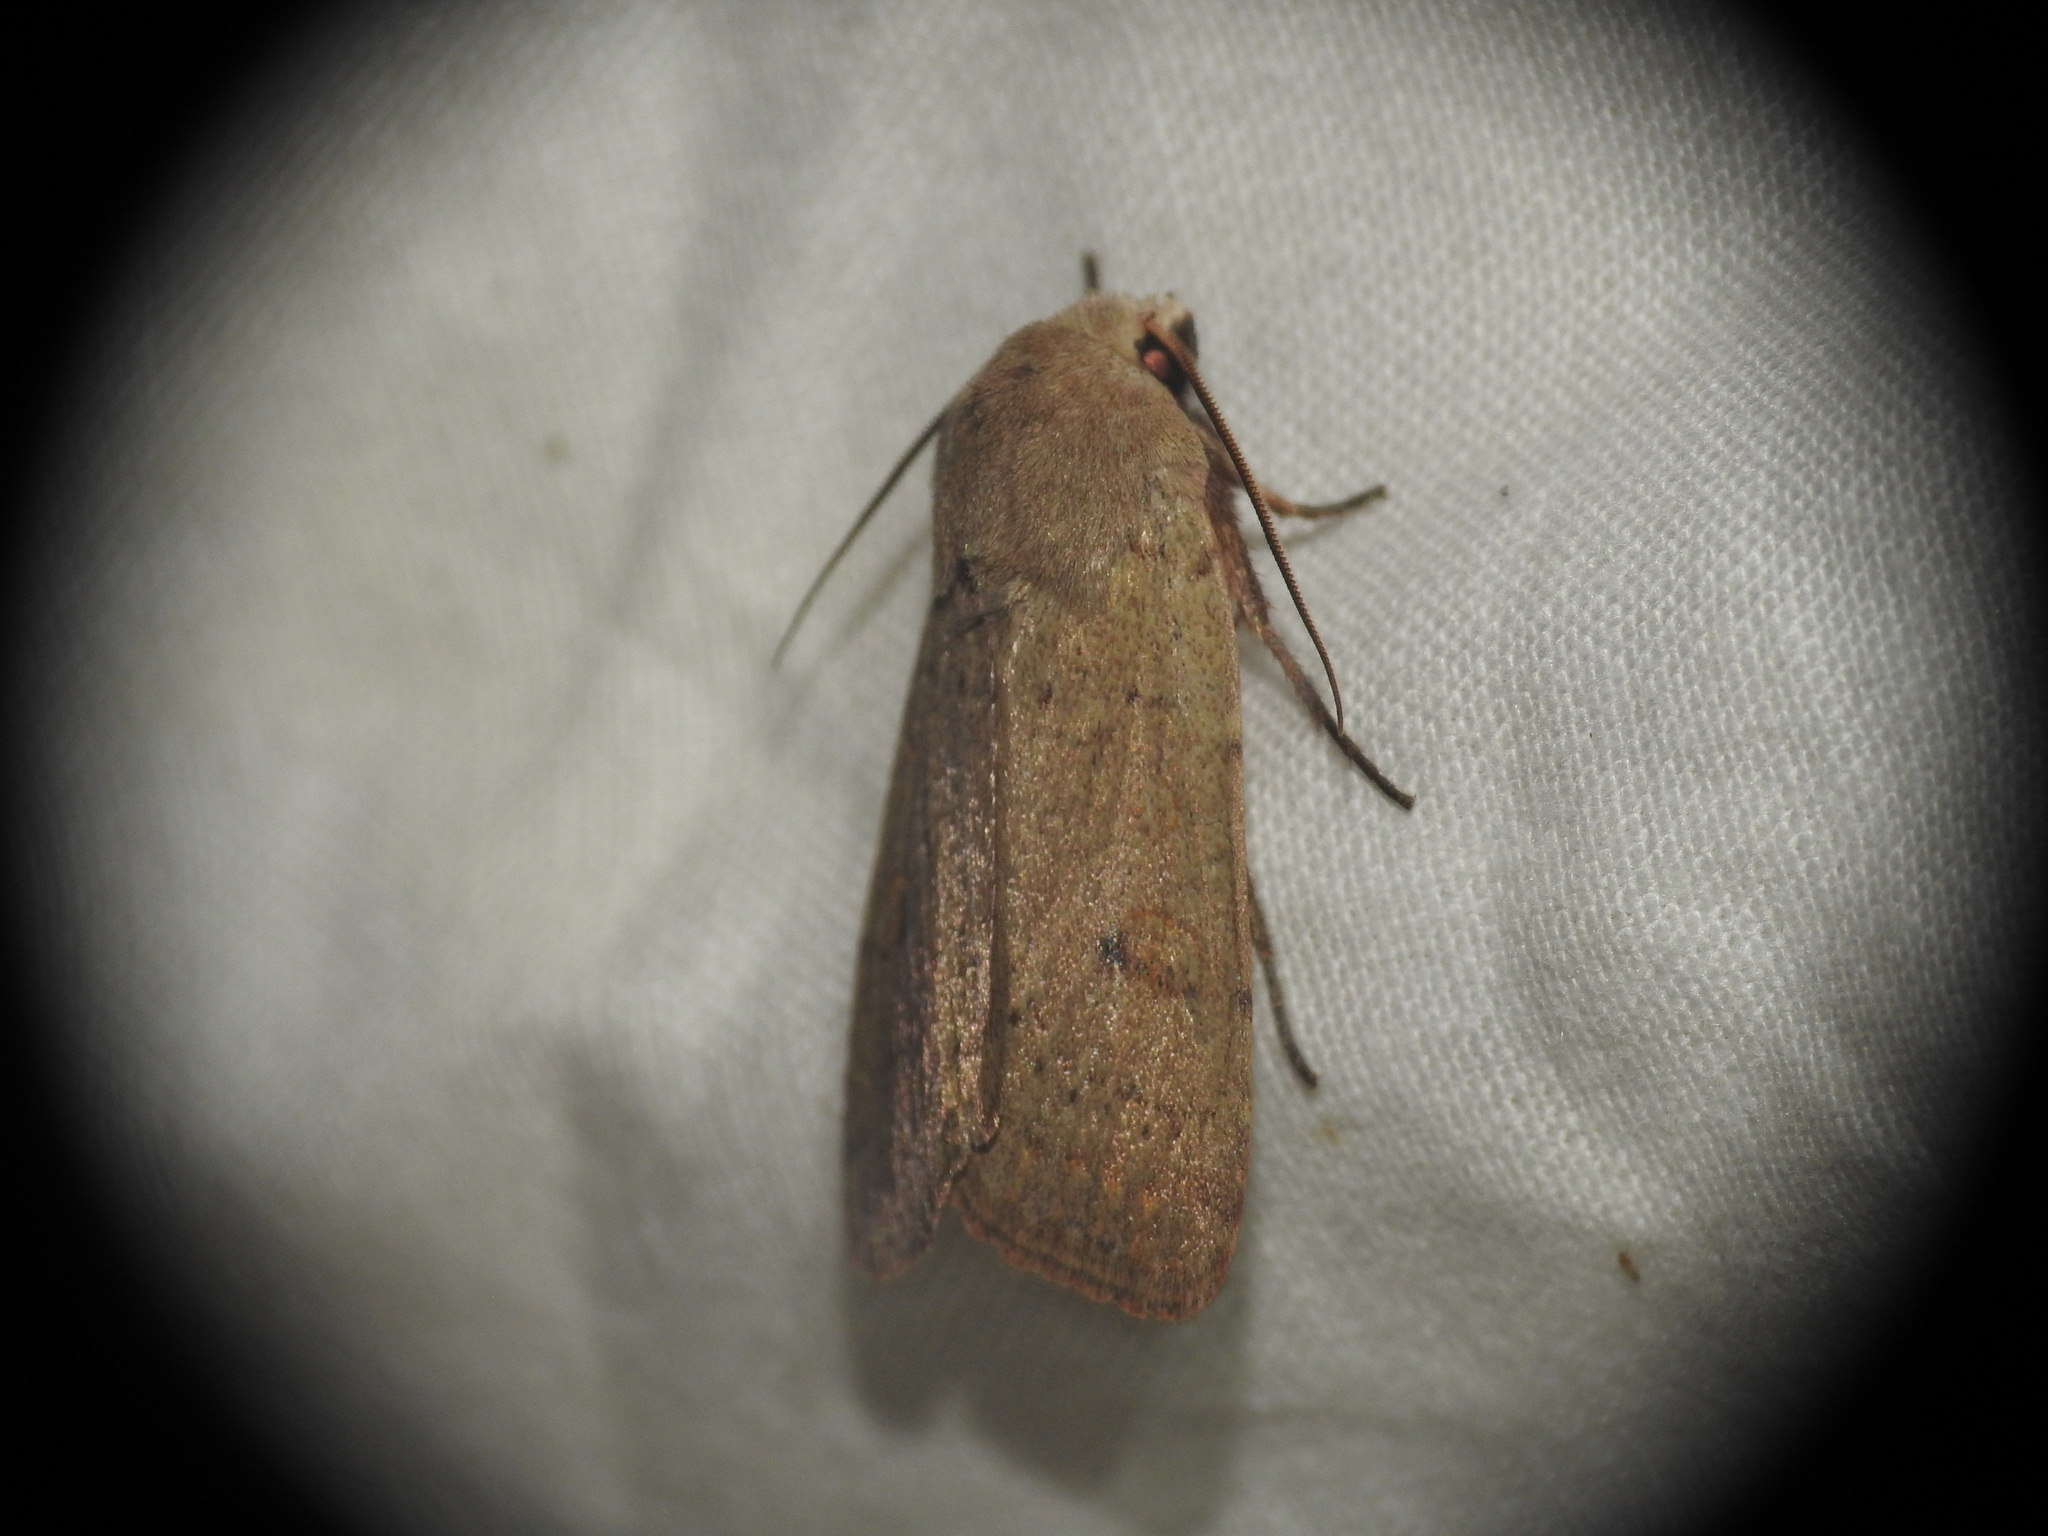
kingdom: Animalia
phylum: Arthropoda
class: Insecta
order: Lepidoptera
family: Noctuidae
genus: Xestia
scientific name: Xestia castanea
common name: Neglected rustic
